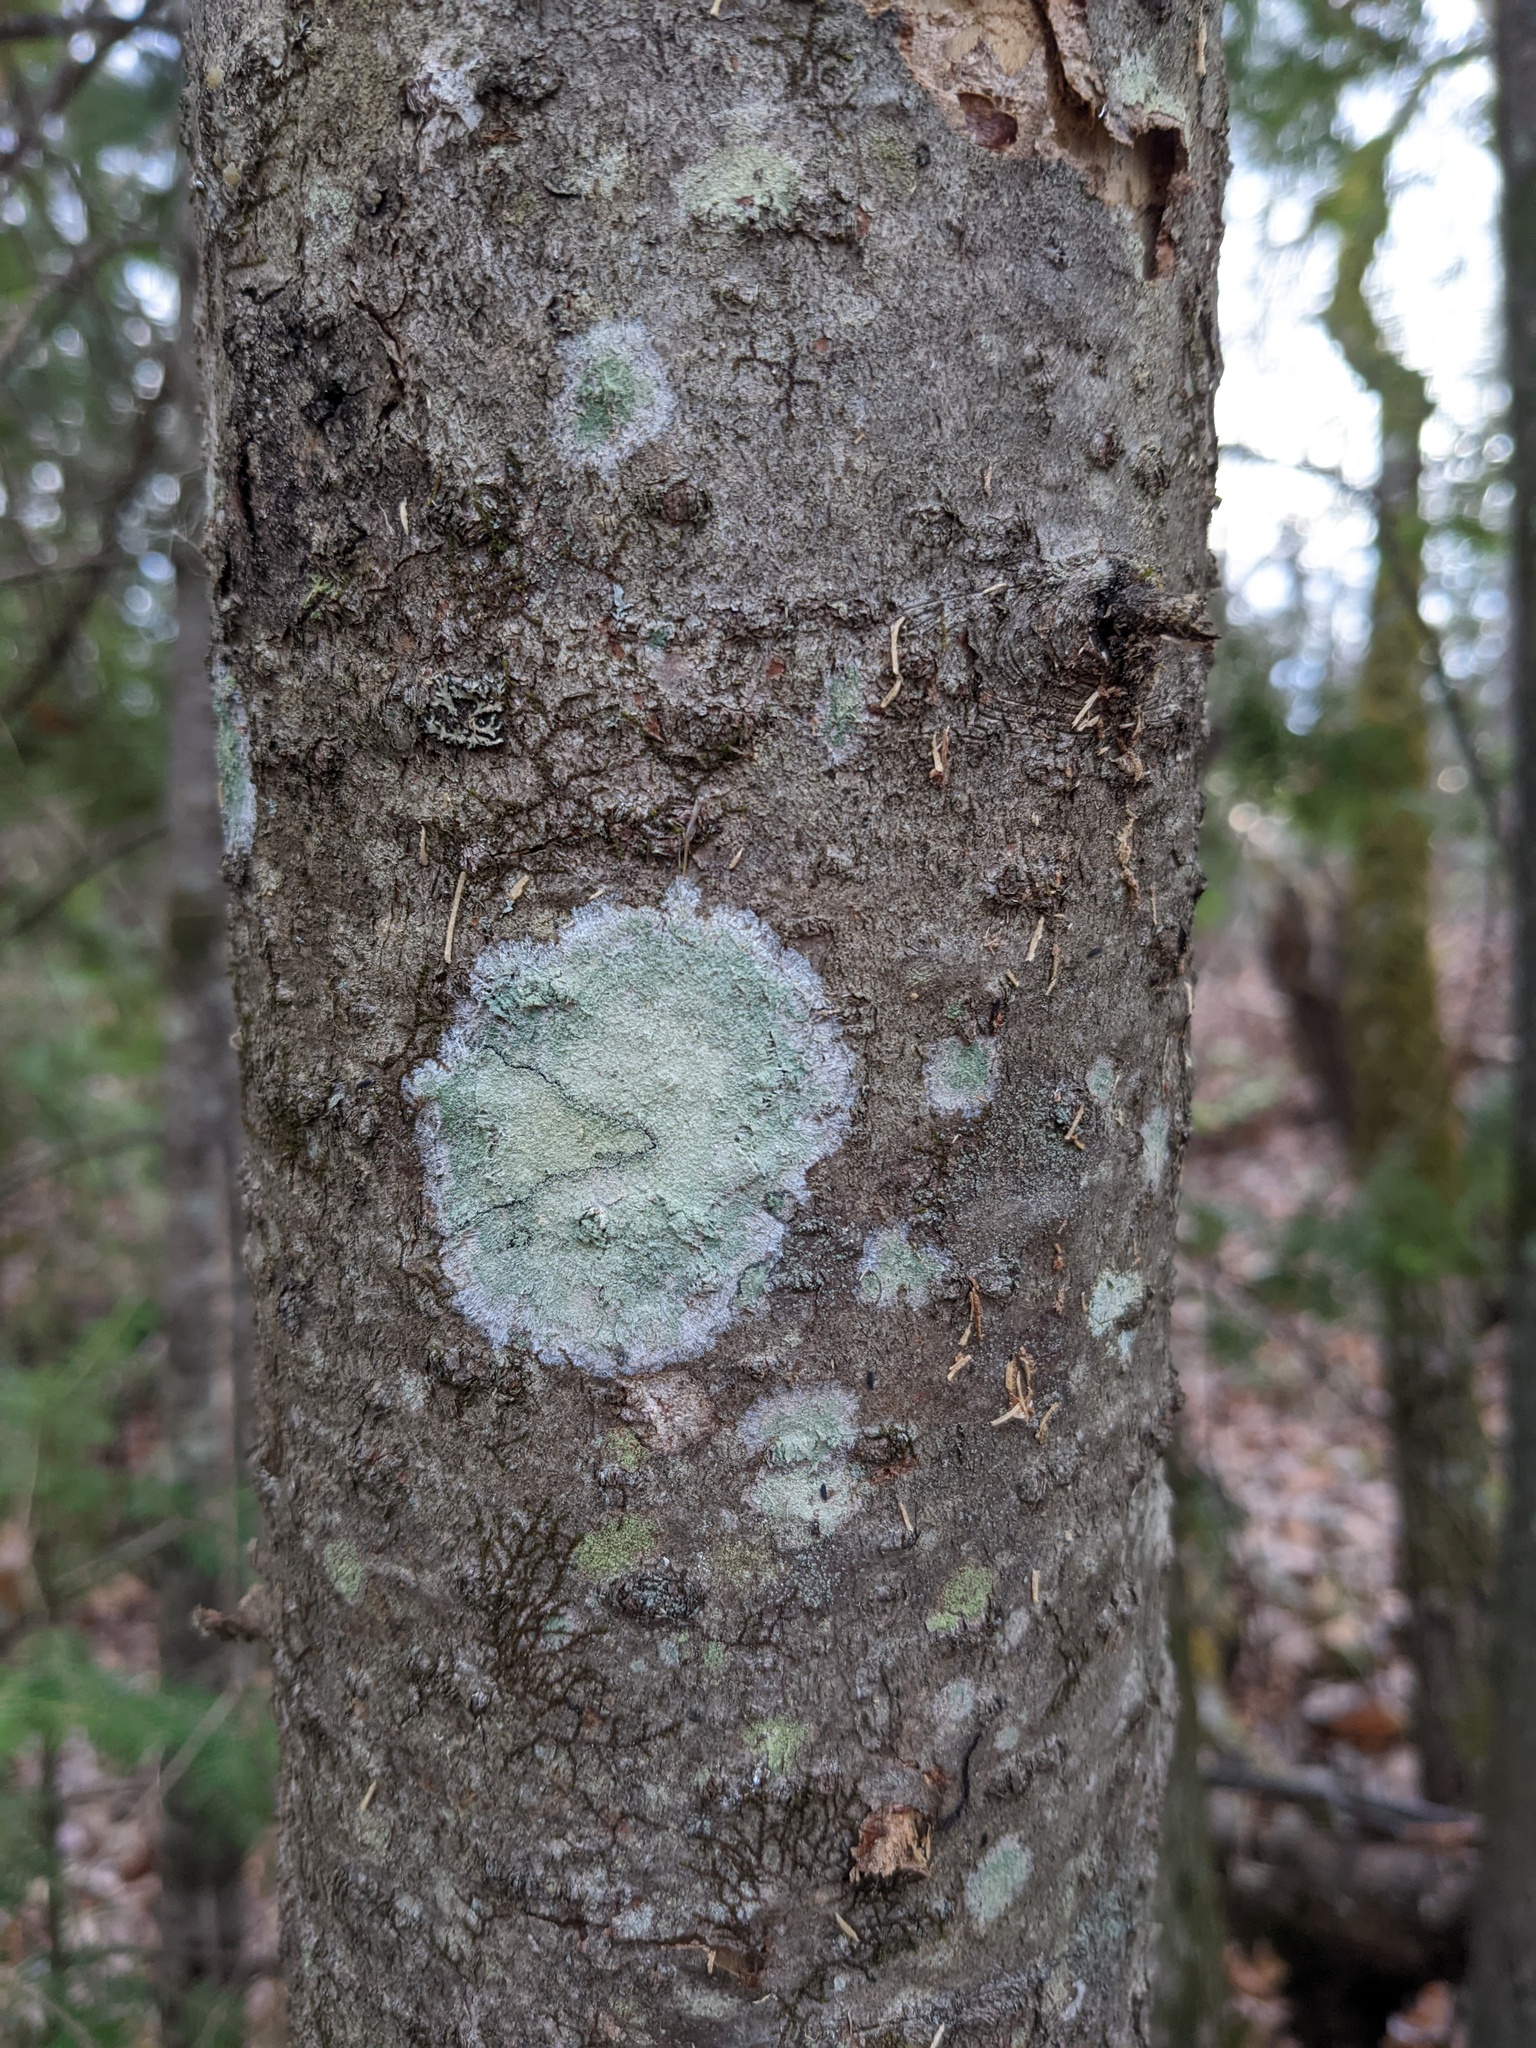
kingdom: Fungi
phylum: Ascomycota
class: Lecanoromycetes
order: Pertusariales
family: Pertusariaceae
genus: Verseghya
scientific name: Verseghya thysanophora
